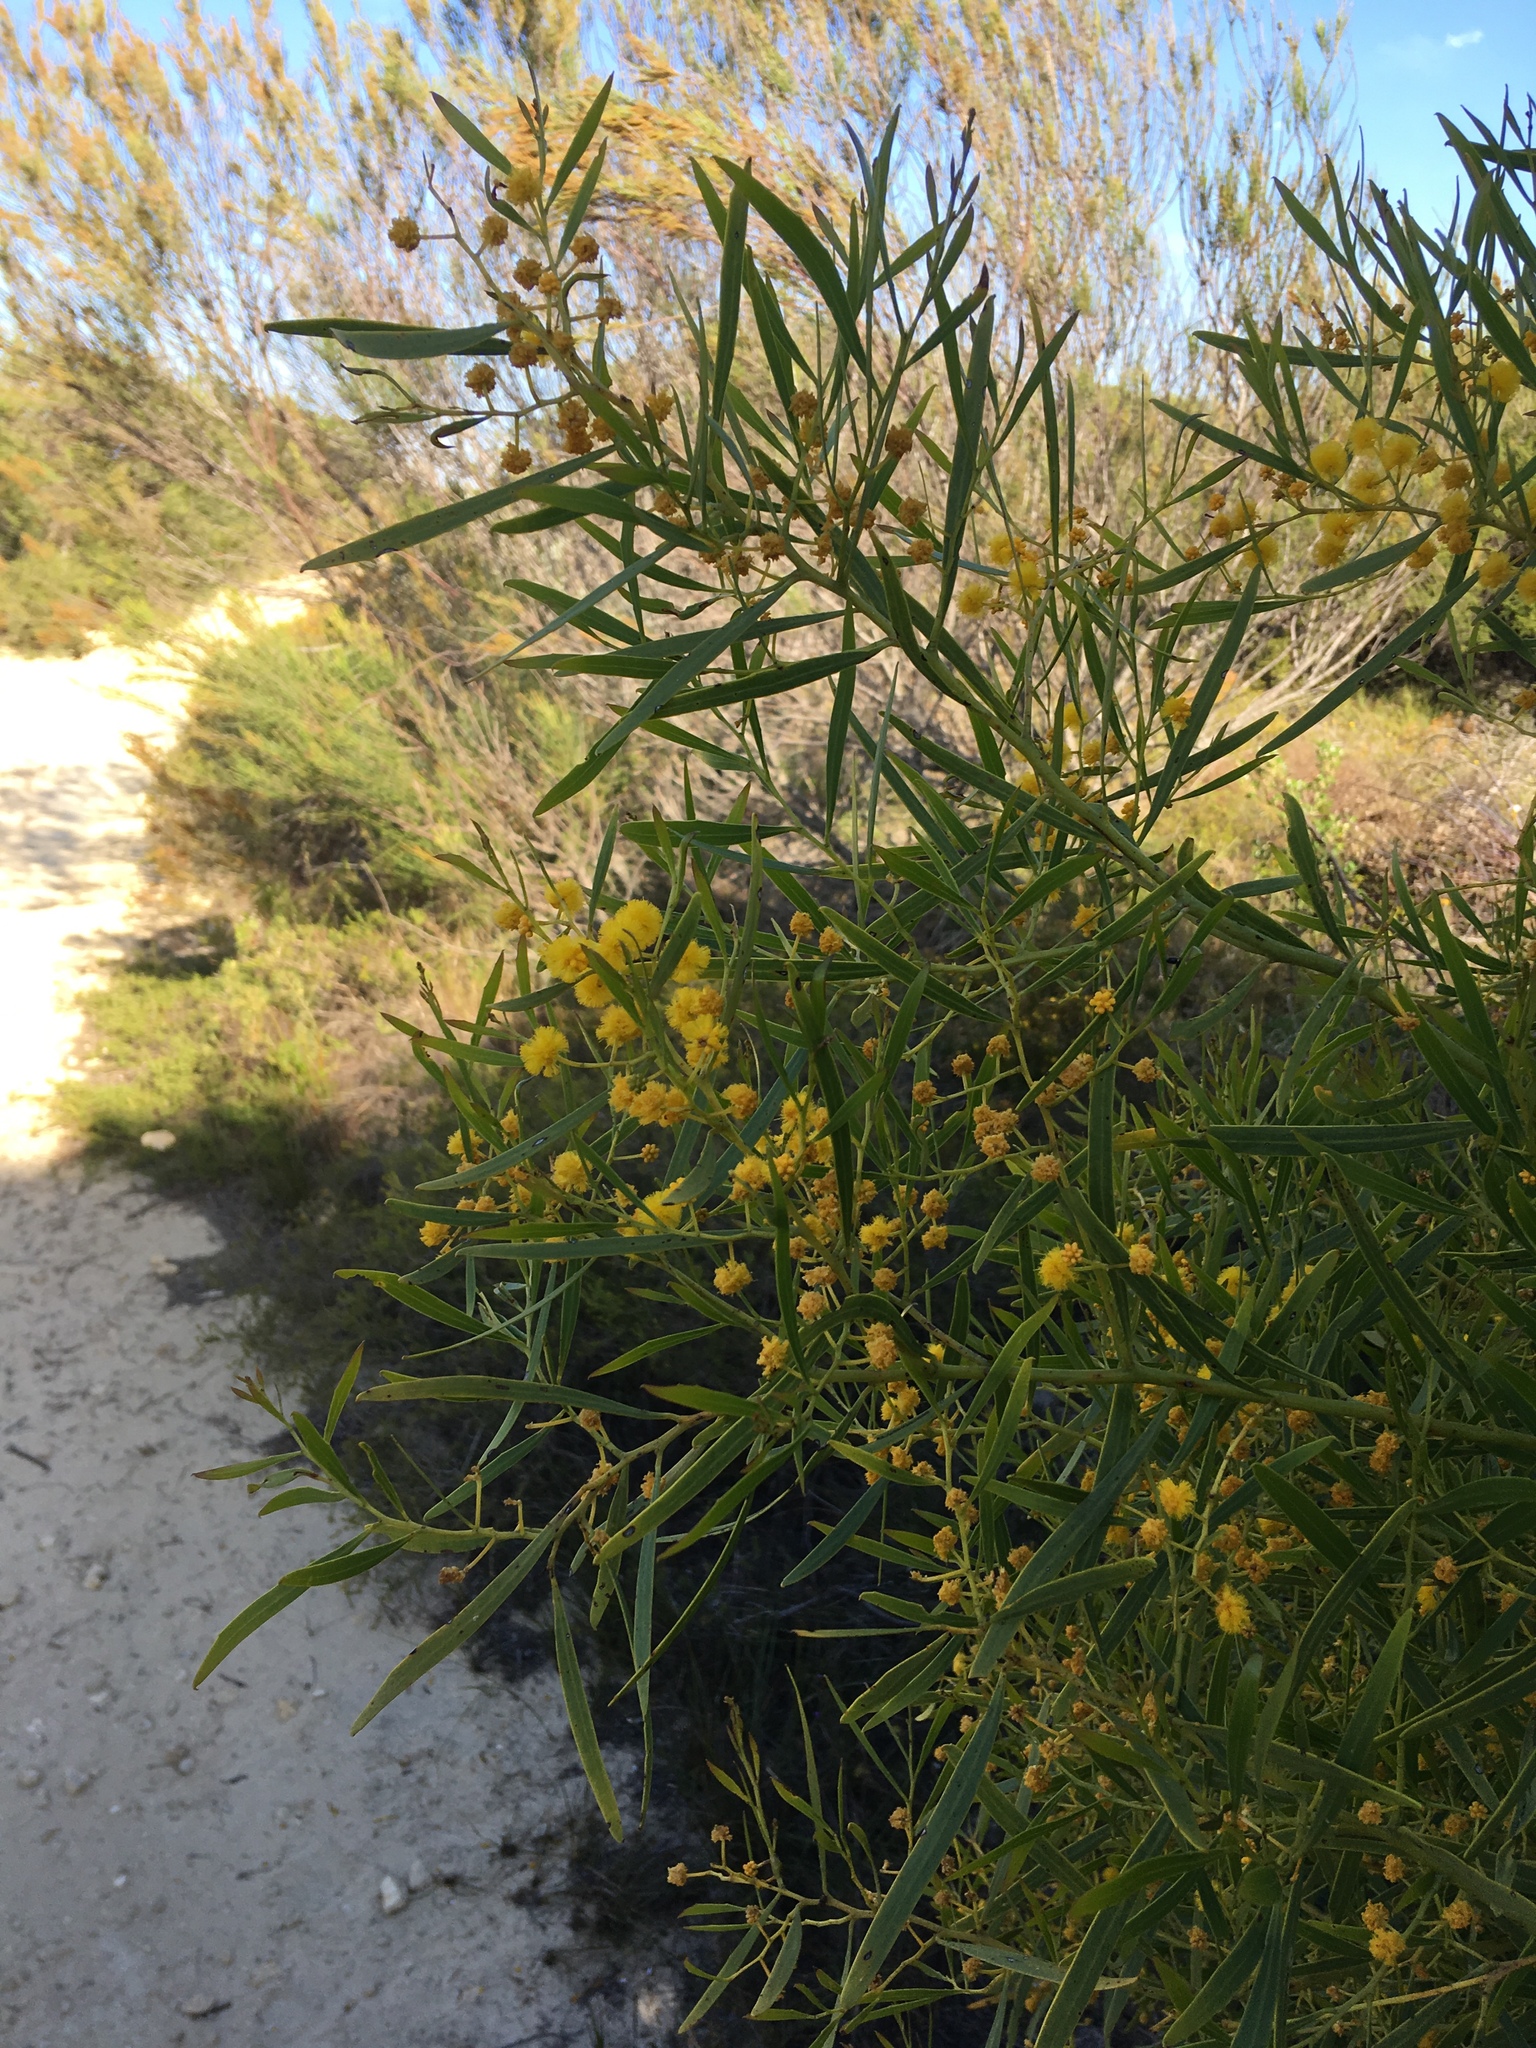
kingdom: Plantae
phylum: Tracheophyta
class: Magnoliopsida
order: Fabales
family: Fabaceae
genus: Acacia
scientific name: Acacia rostellifera
